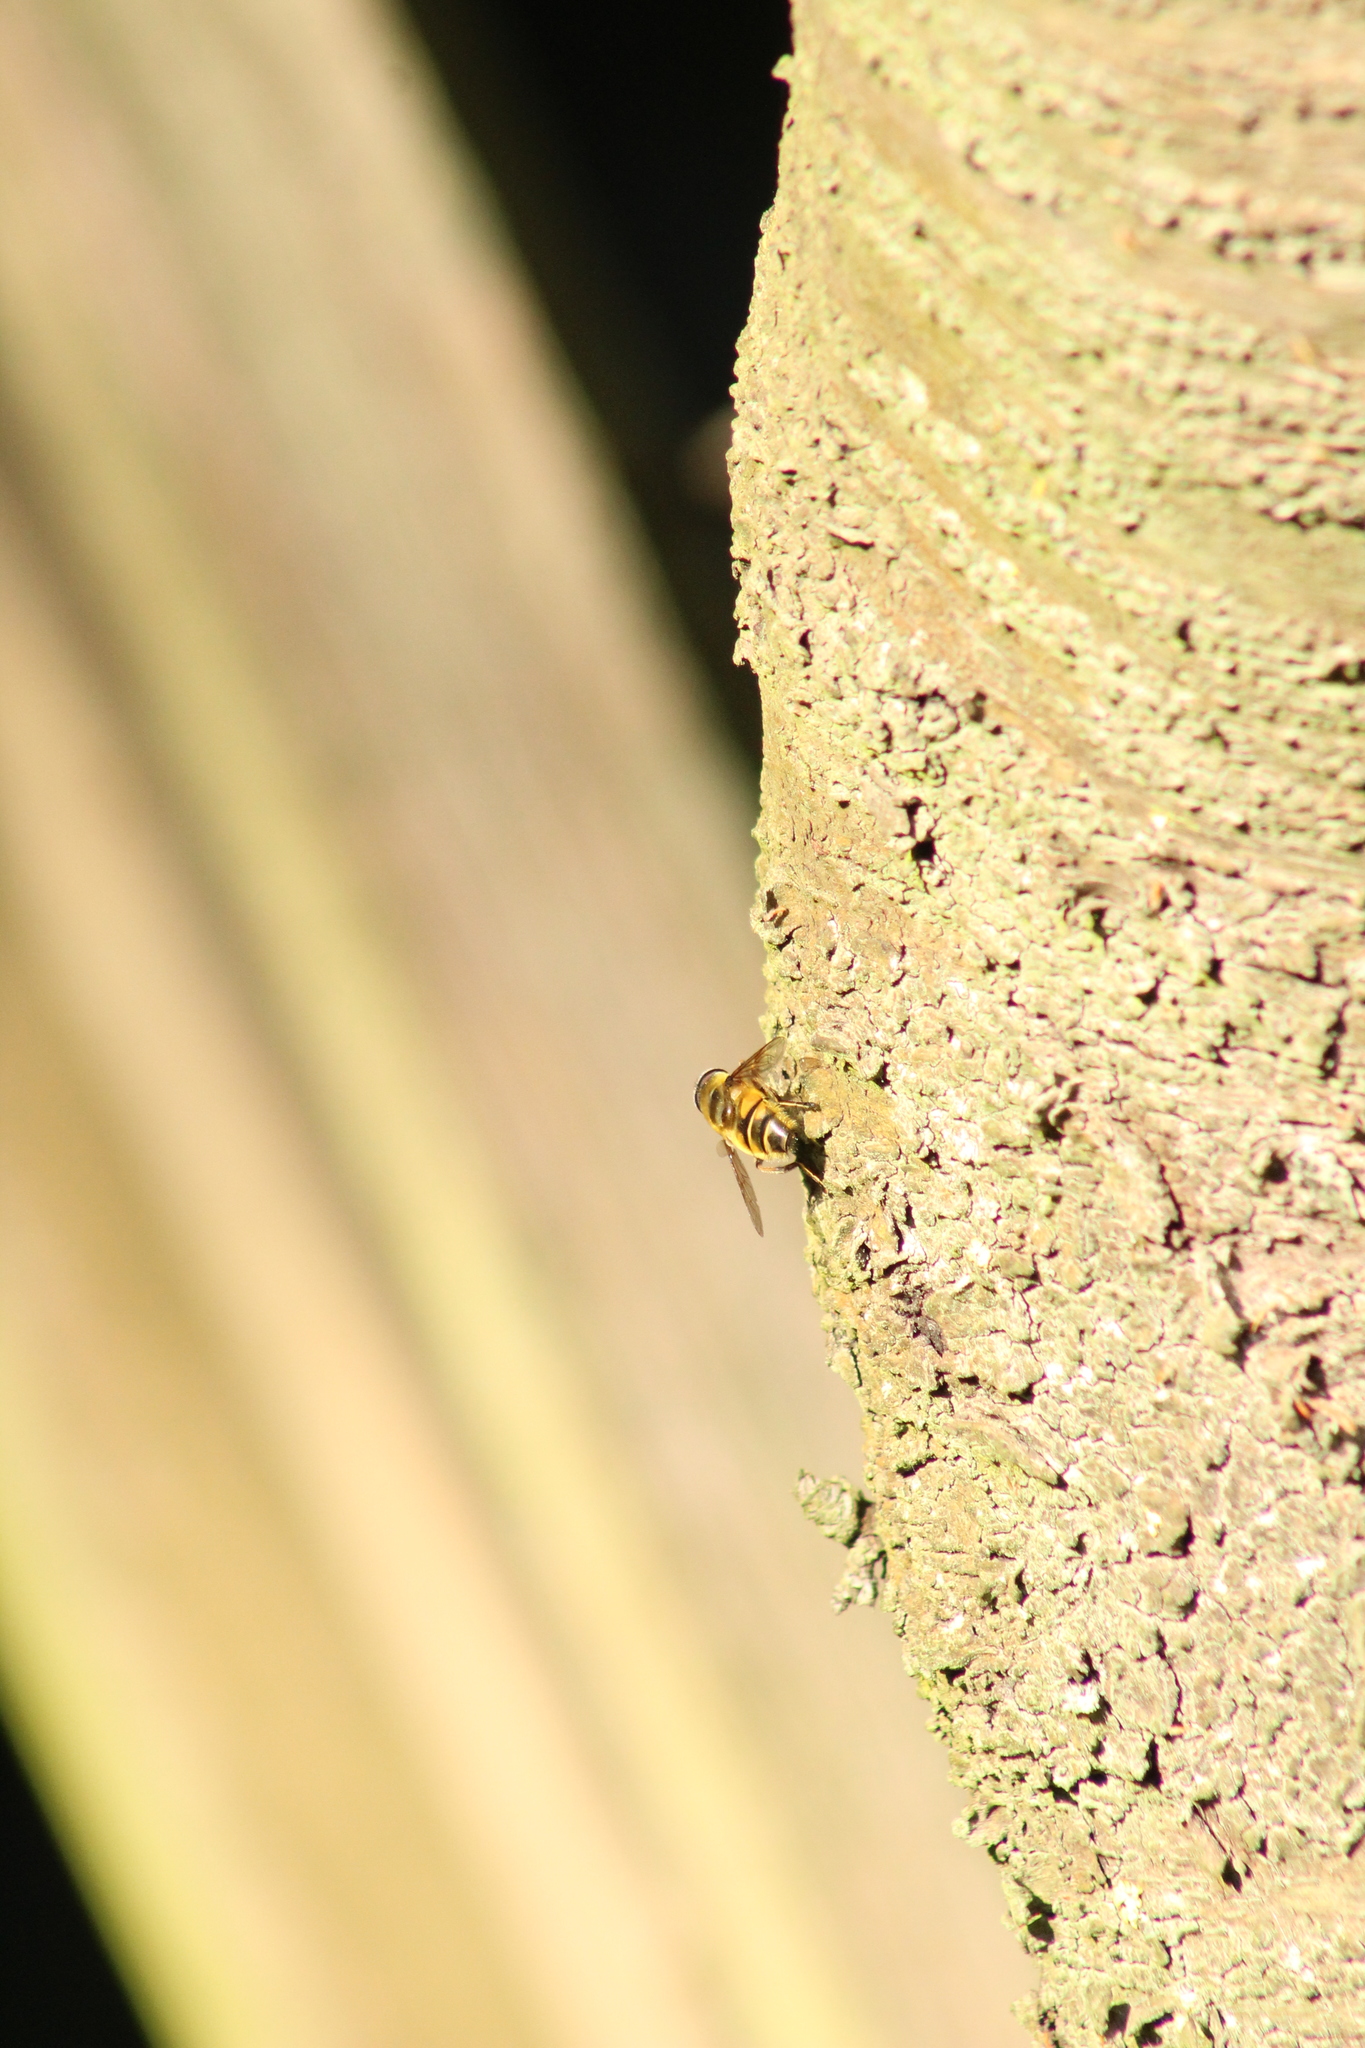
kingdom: Animalia
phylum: Arthropoda
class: Insecta
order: Diptera
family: Syrphidae
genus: Myathropa
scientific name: Myathropa florea
